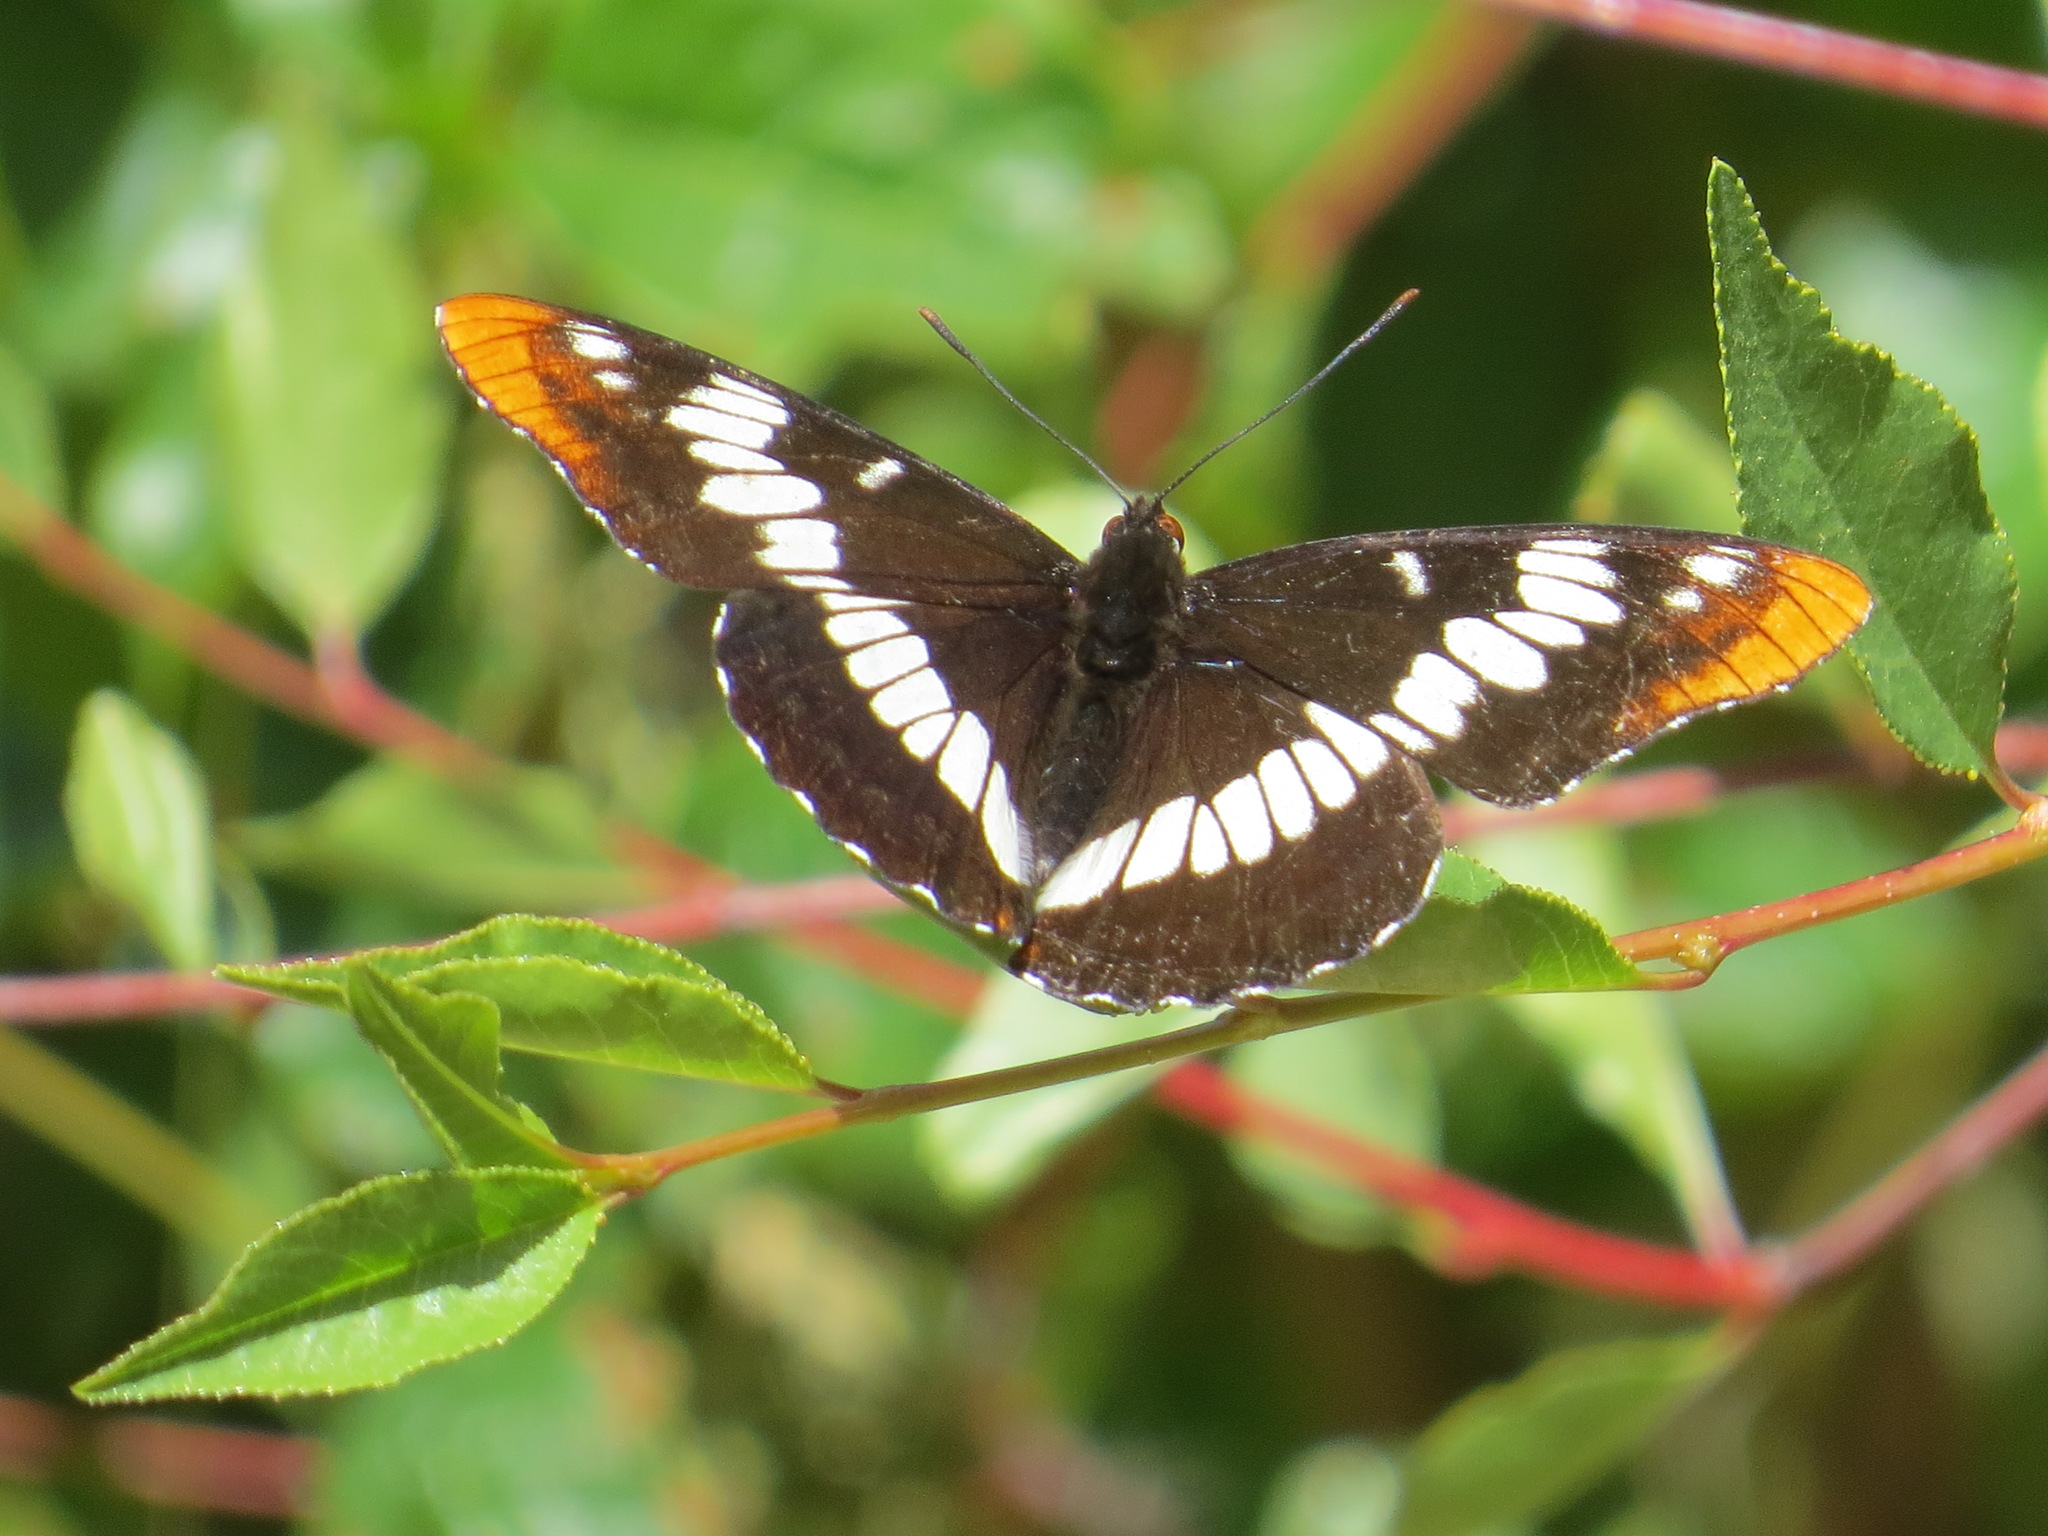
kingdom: Animalia
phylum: Arthropoda
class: Insecta
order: Lepidoptera
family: Nymphalidae
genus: Limenitis
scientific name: Limenitis lorquini
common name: Lorquin's admiral
